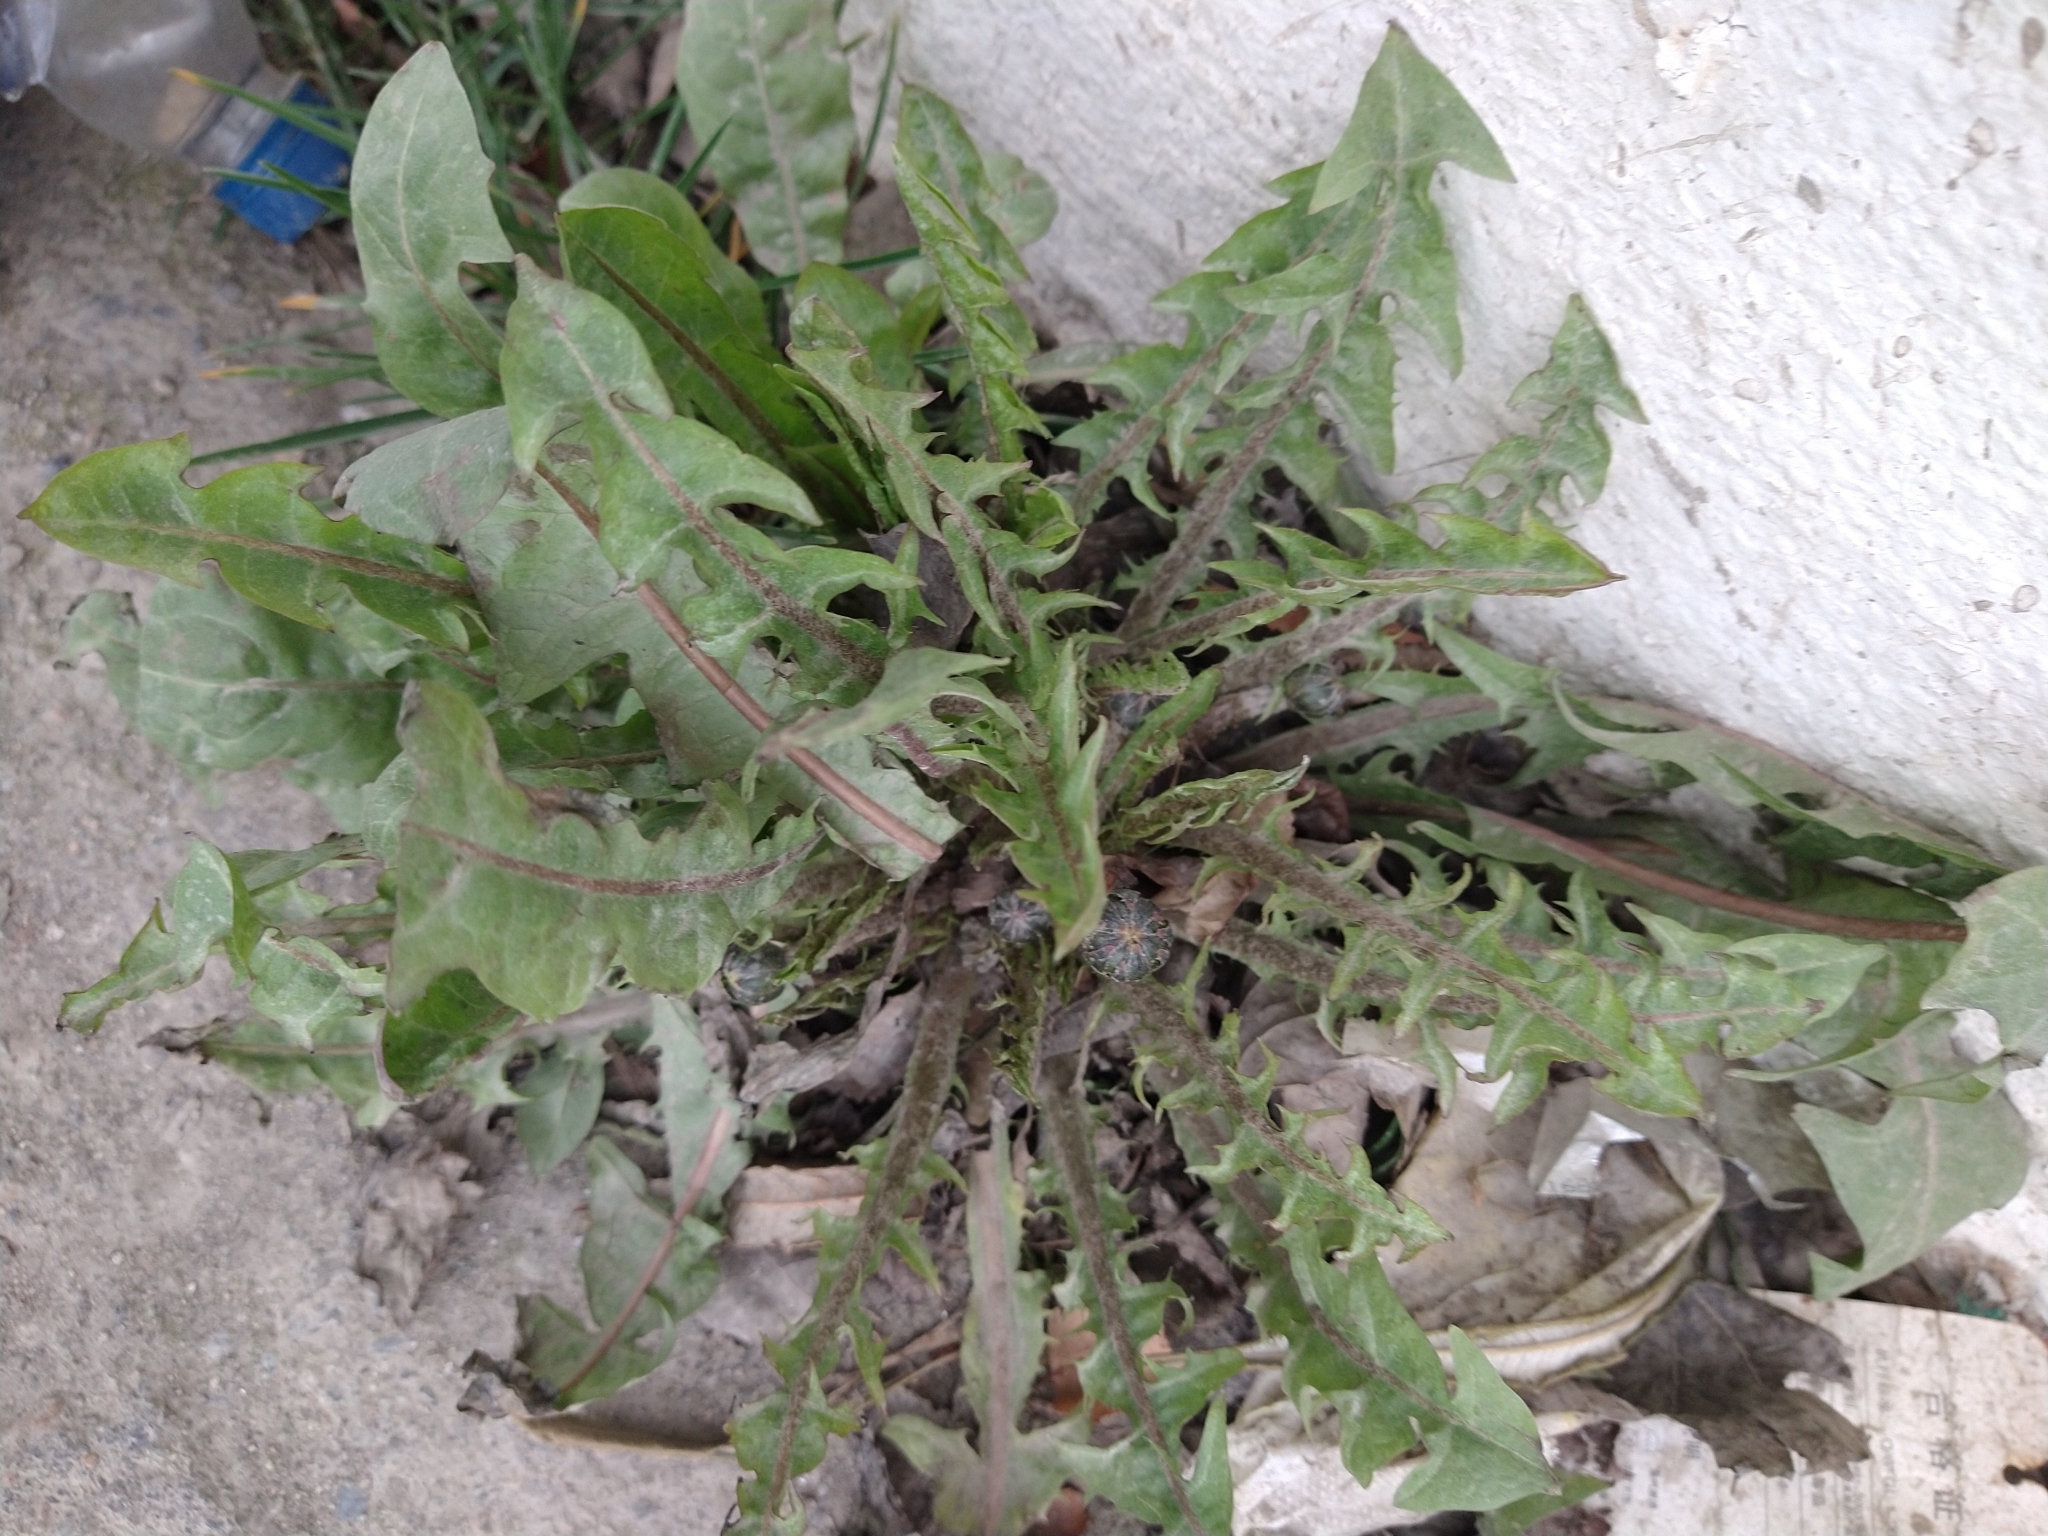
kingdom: Plantae
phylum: Tracheophyta
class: Magnoliopsida
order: Asterales
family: Asteraceae
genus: Taraxacum
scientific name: Taraxacum officinale
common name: Common dandelion
